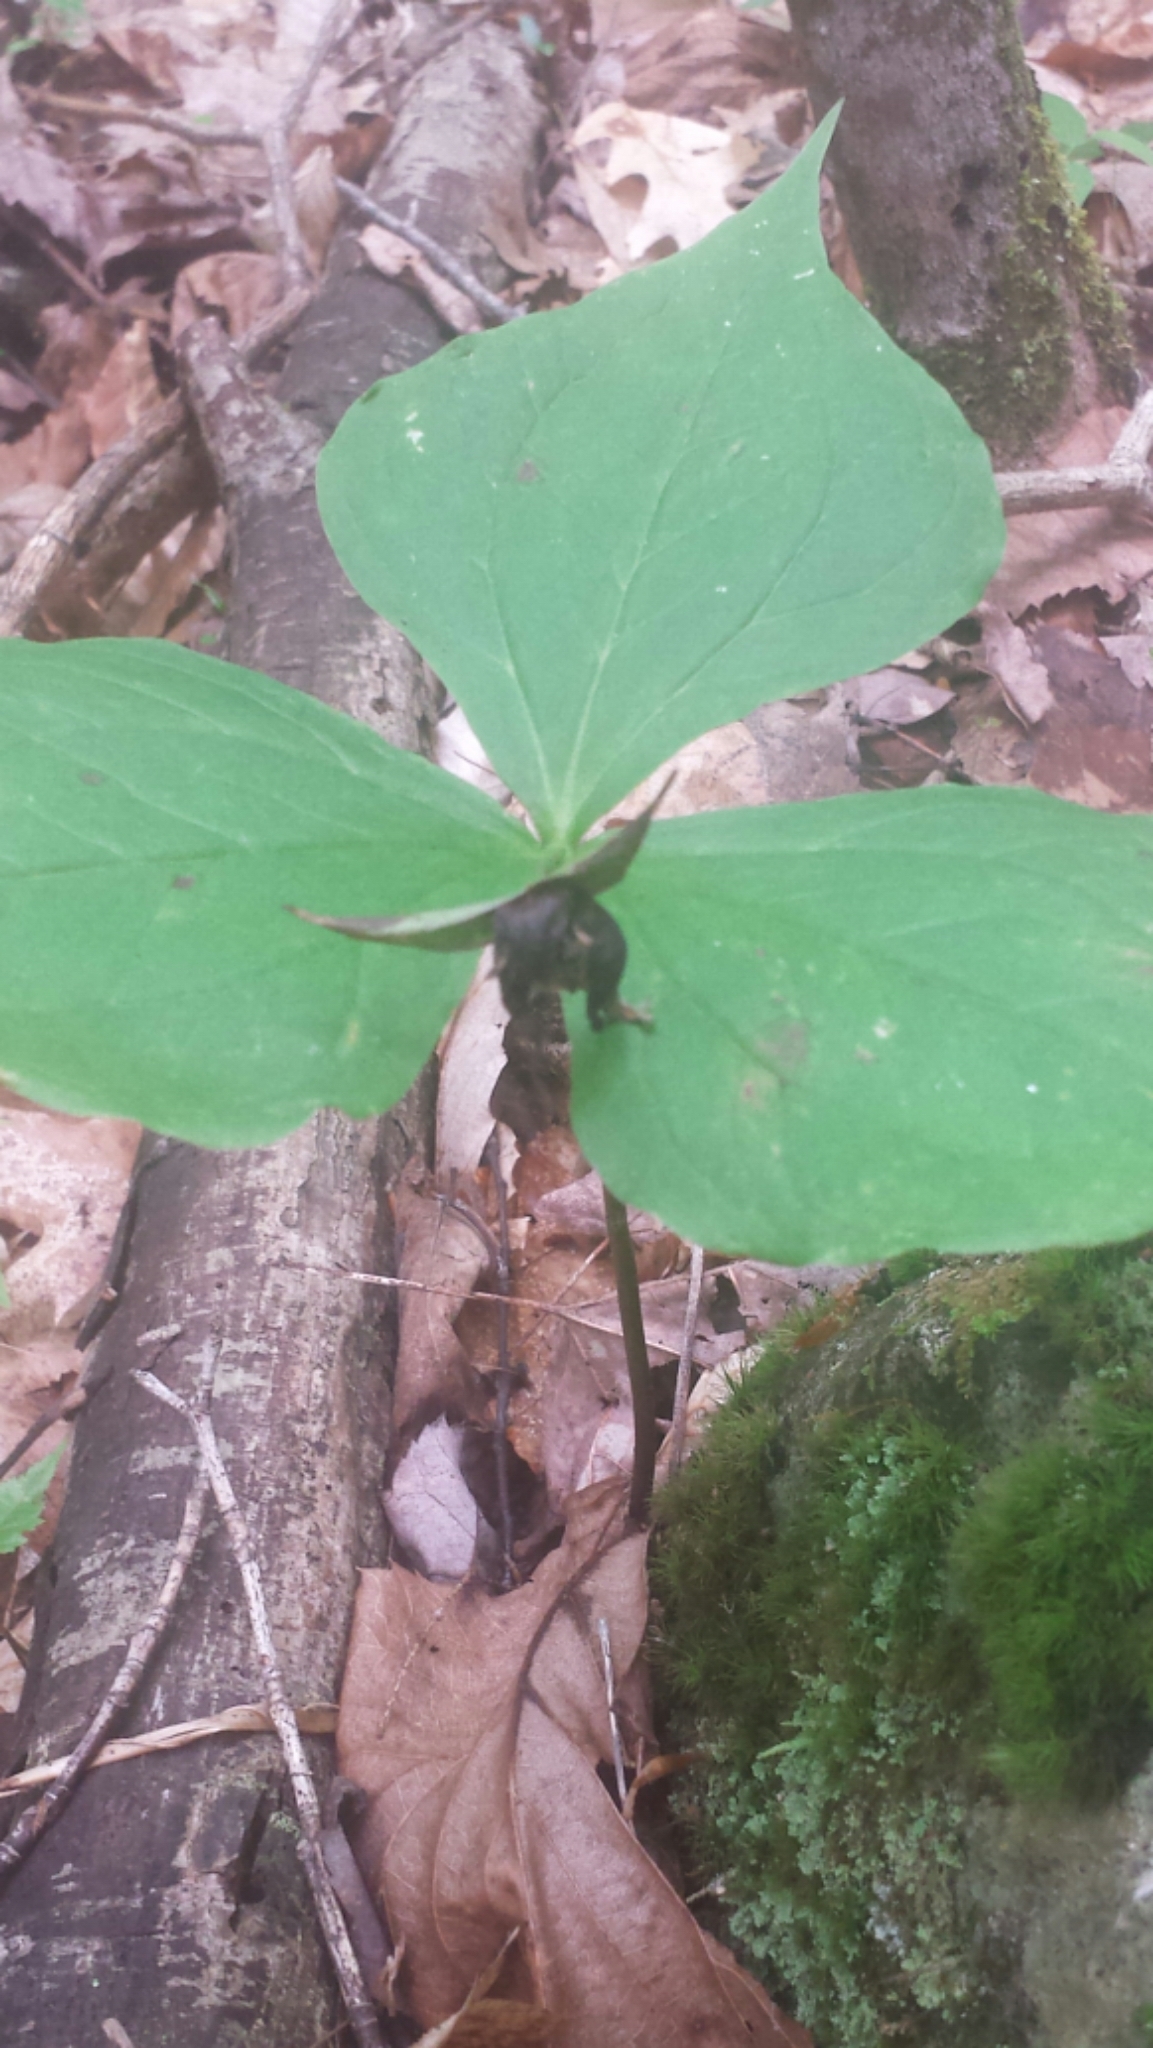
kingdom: Plantae
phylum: Tracheophyta
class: Liliopsida
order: Liliales
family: Melanthiaceae
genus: Trillium
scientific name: Trillium erectum
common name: Purple trillium
